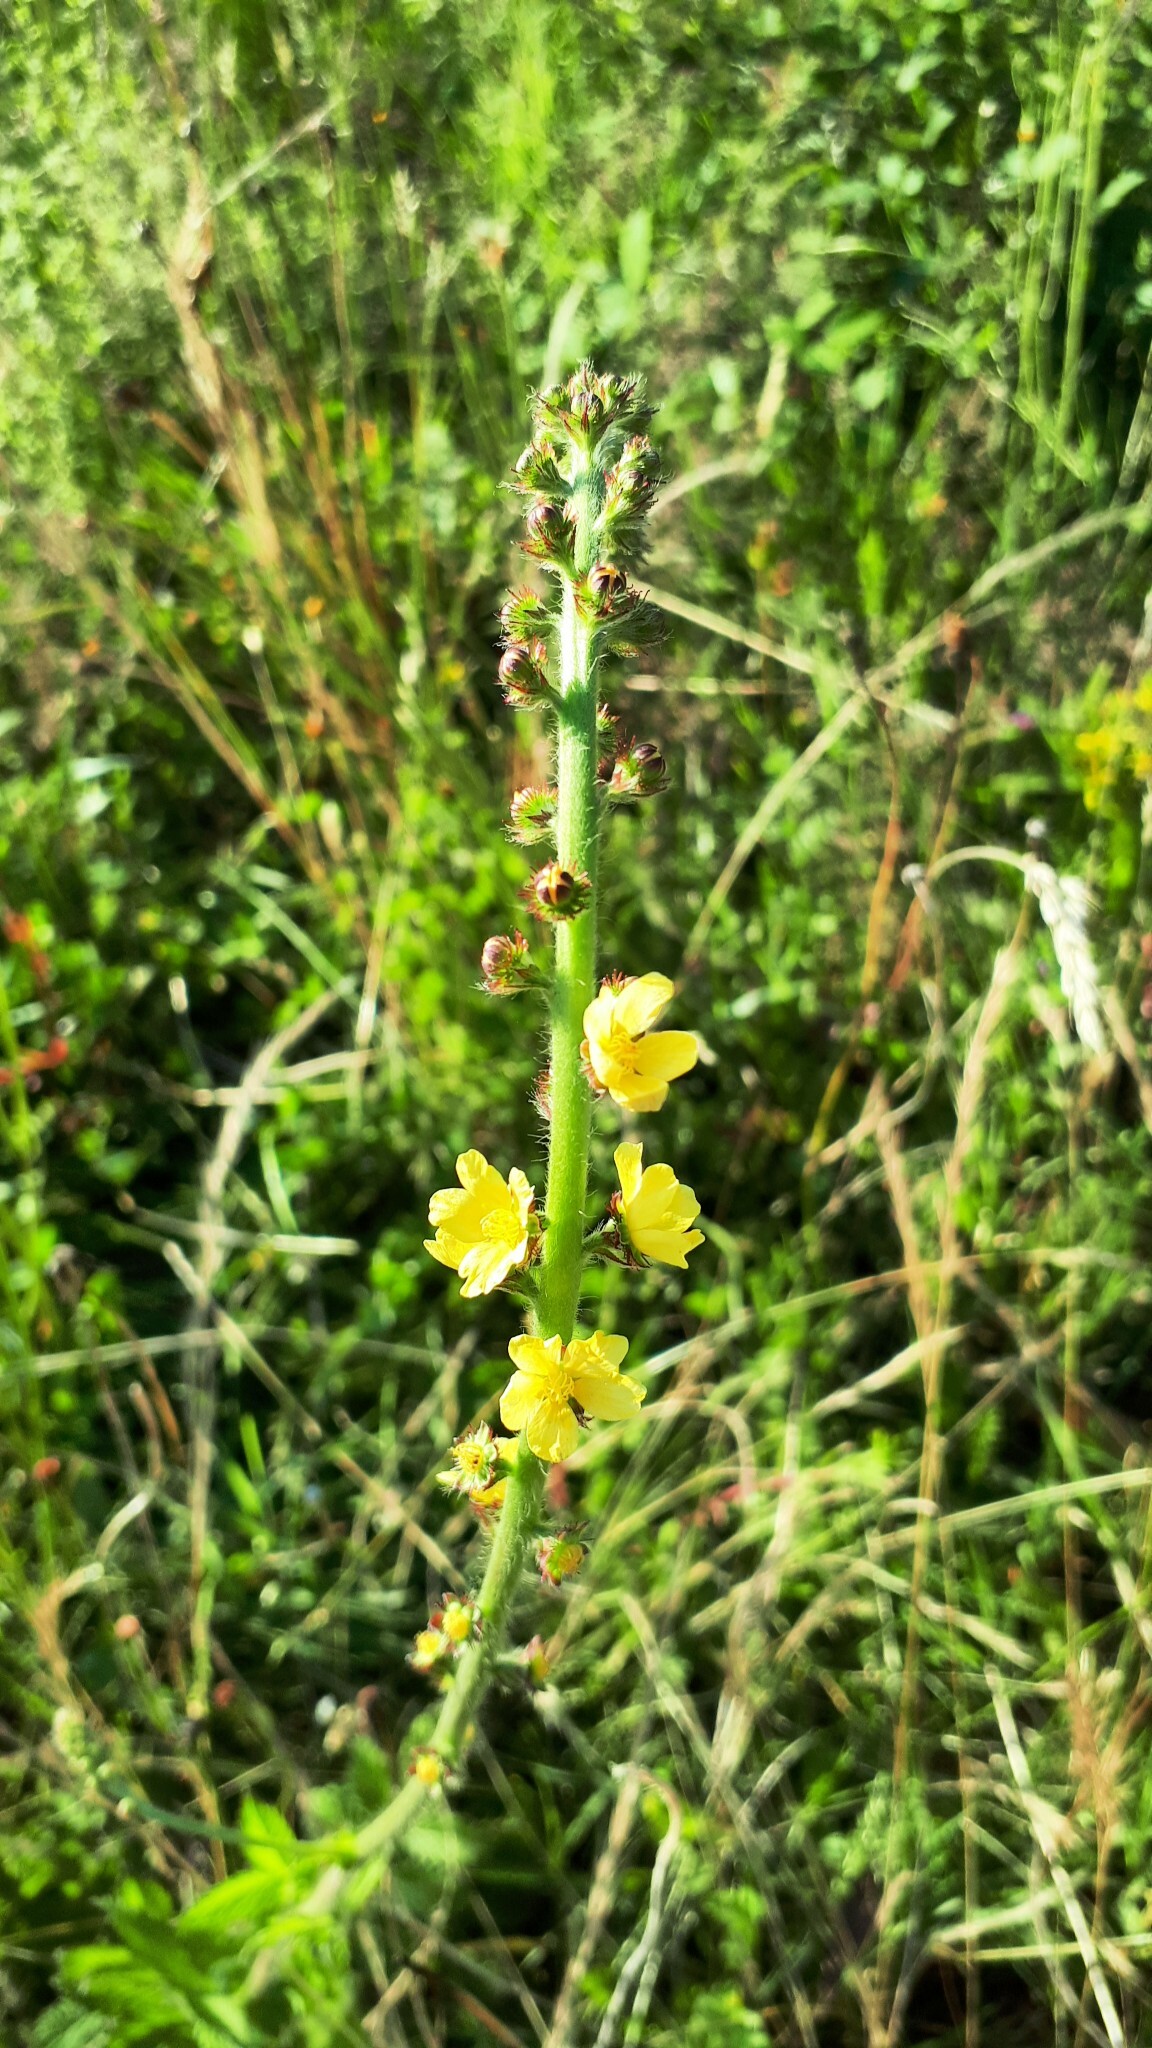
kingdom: Plantae
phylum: Tracheophyta
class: Magnoliopsida
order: Rosales
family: Rosaceae
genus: Agrimonia
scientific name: Agrimonia eupatoria
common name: Agrimony
